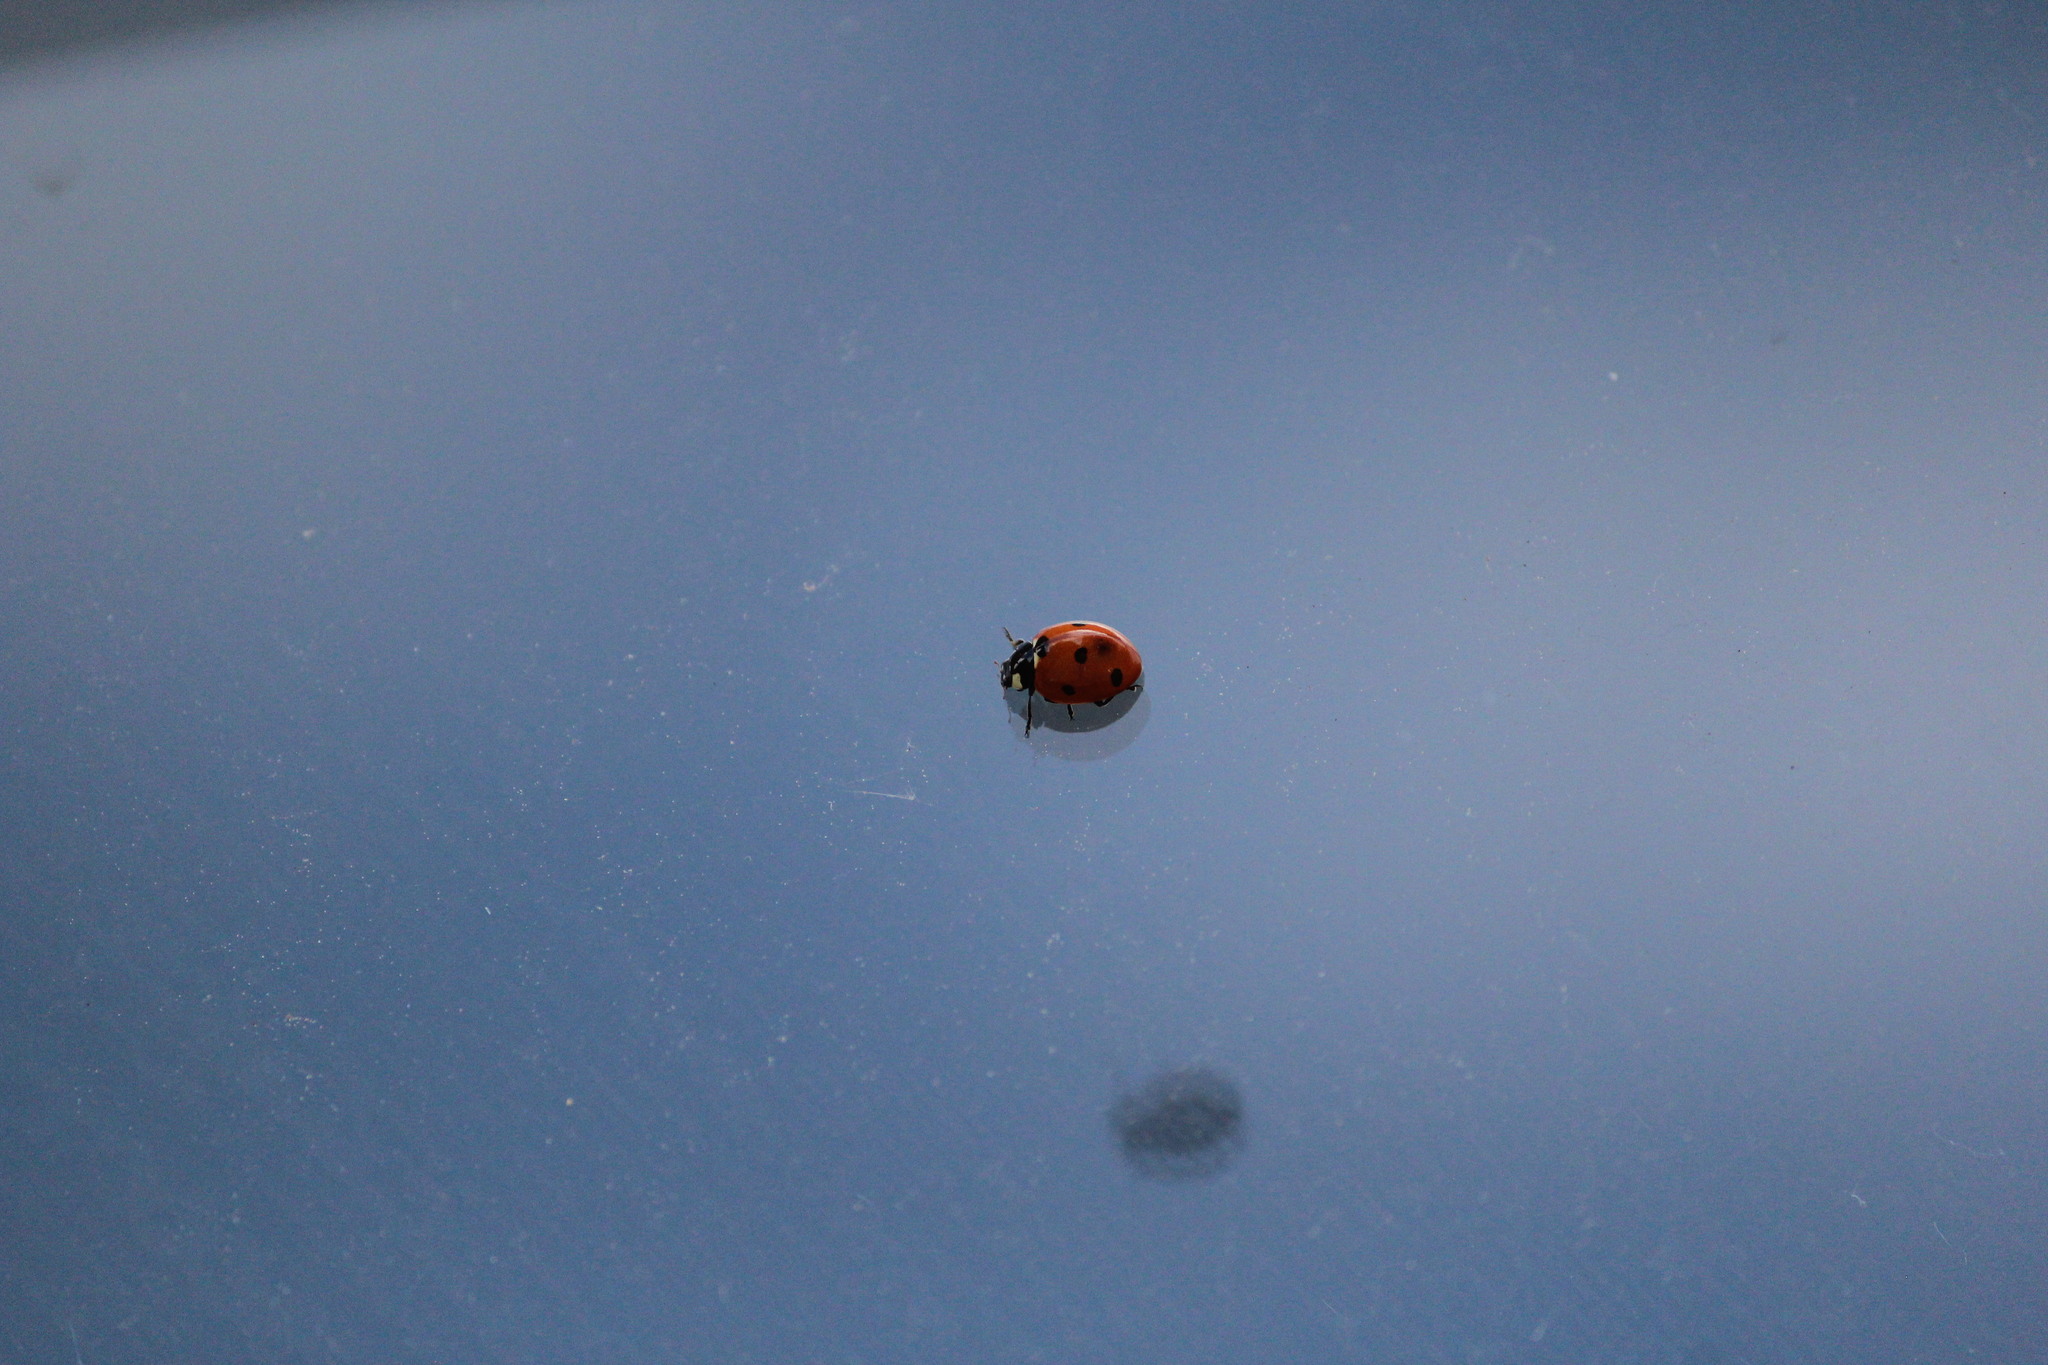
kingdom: Animalia
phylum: Arthropoda
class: Insecta
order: Coleoptera
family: Coccinellidae
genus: Coccinella
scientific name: Coccinella septempunctata
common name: Sevenspotted lady beetle
